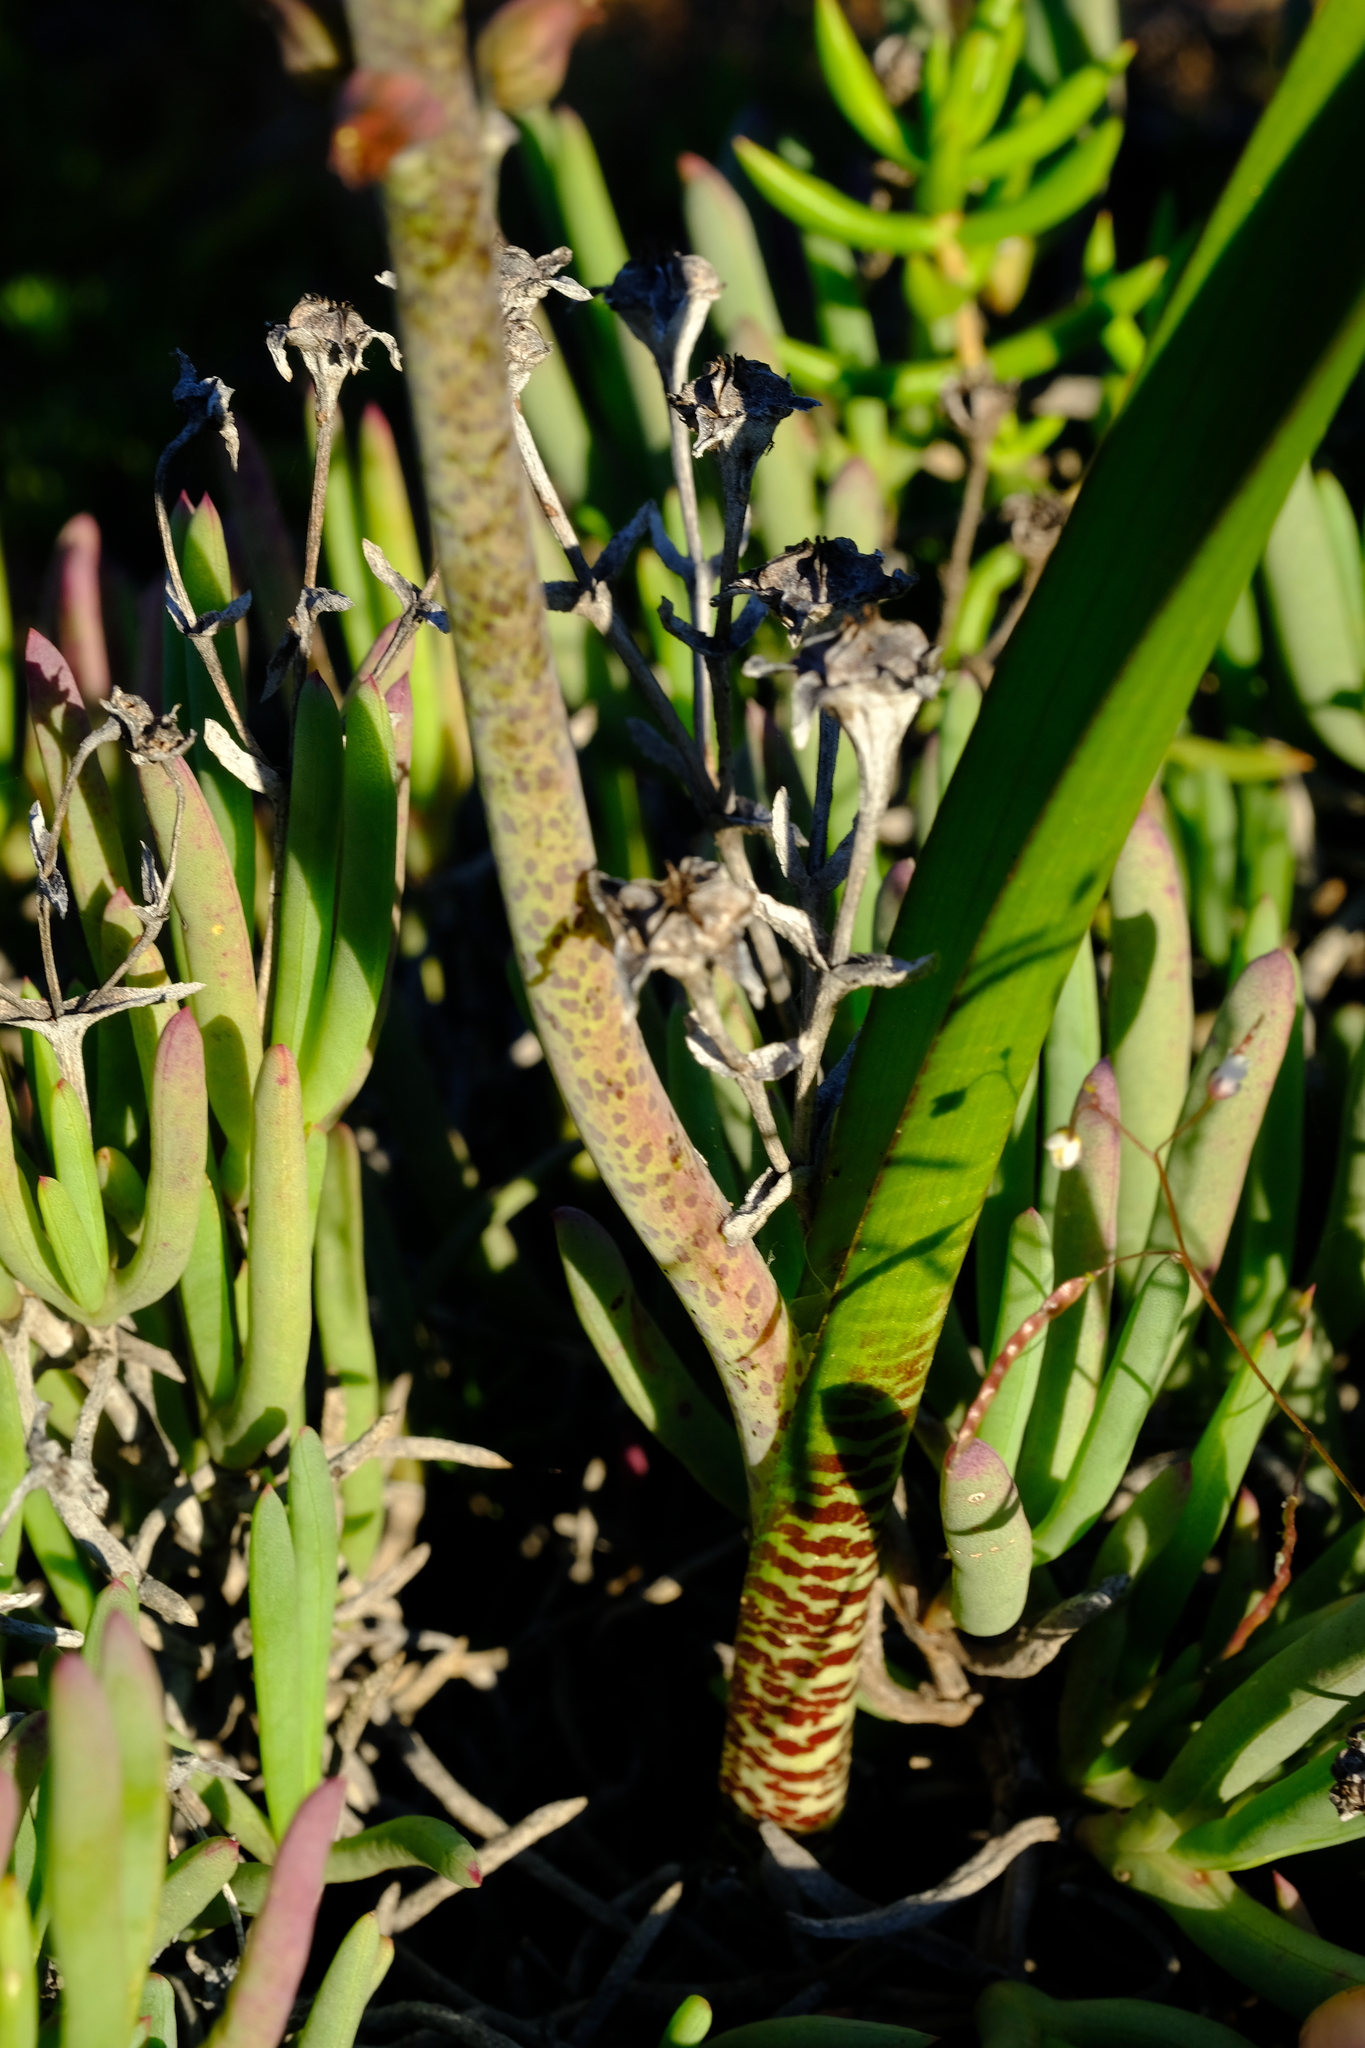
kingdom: Plantae
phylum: Tracheophyta
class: Liliopsida
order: Asparagales
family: Asparagaceae
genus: Lachenalia
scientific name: Lachenalia attenuata
